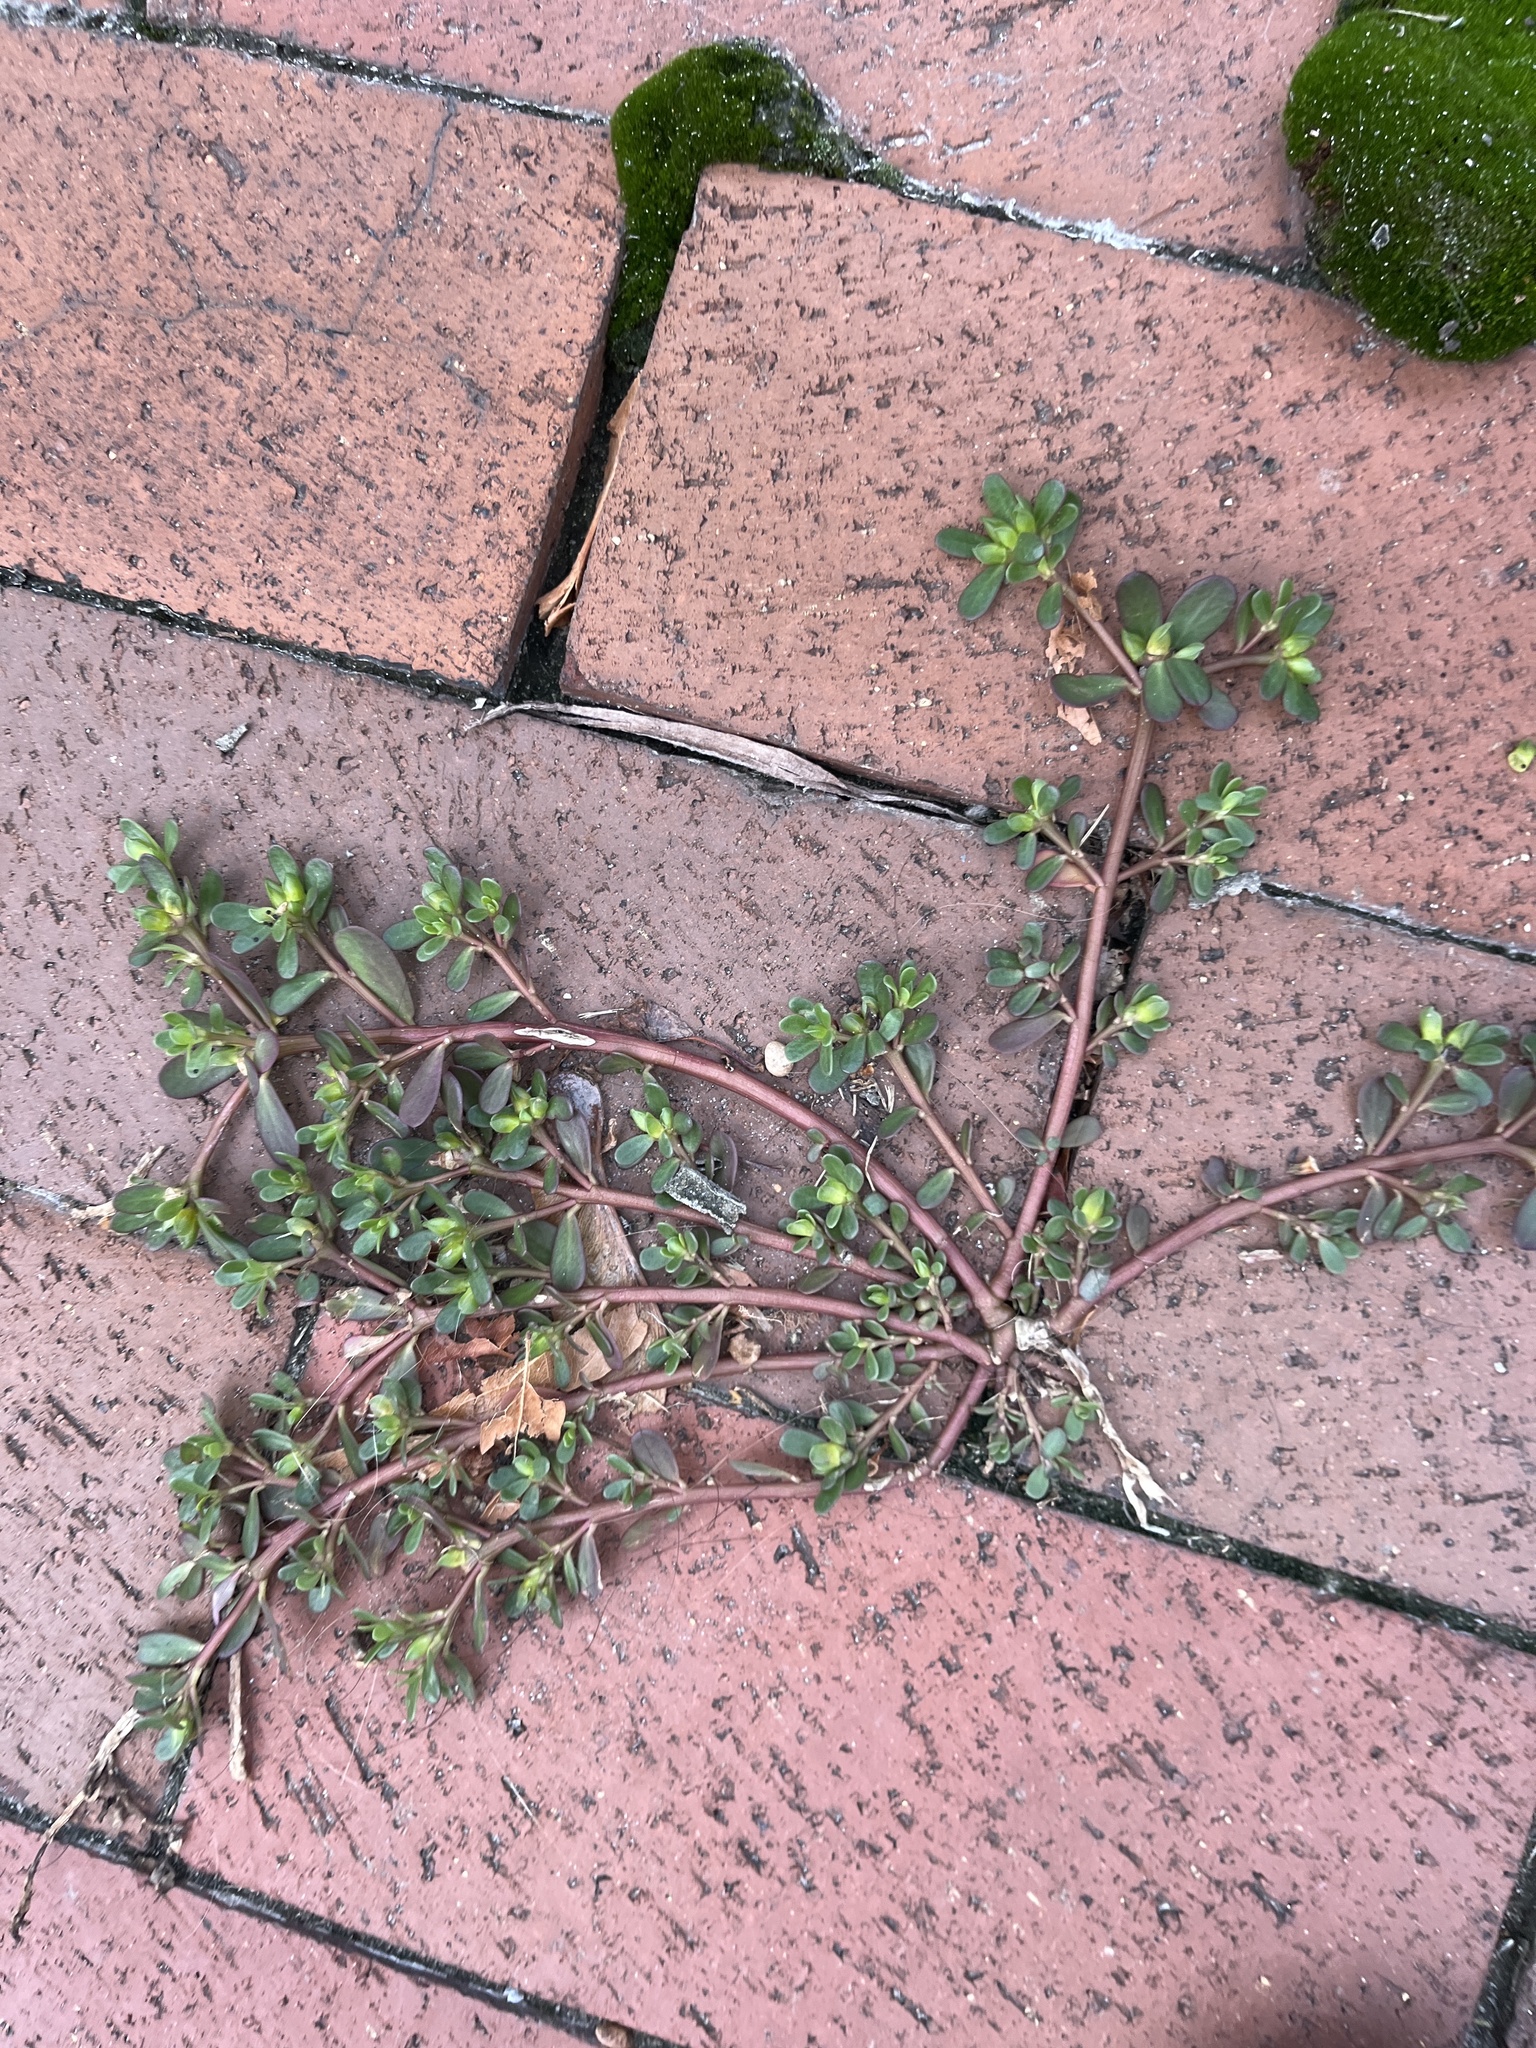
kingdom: Plantae
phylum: Tracheophyta
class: Magnoliopsida
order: Caryophyllales
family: Portulacaceae
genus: Portulaca
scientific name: Portulaca oleracea
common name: Common purslane
